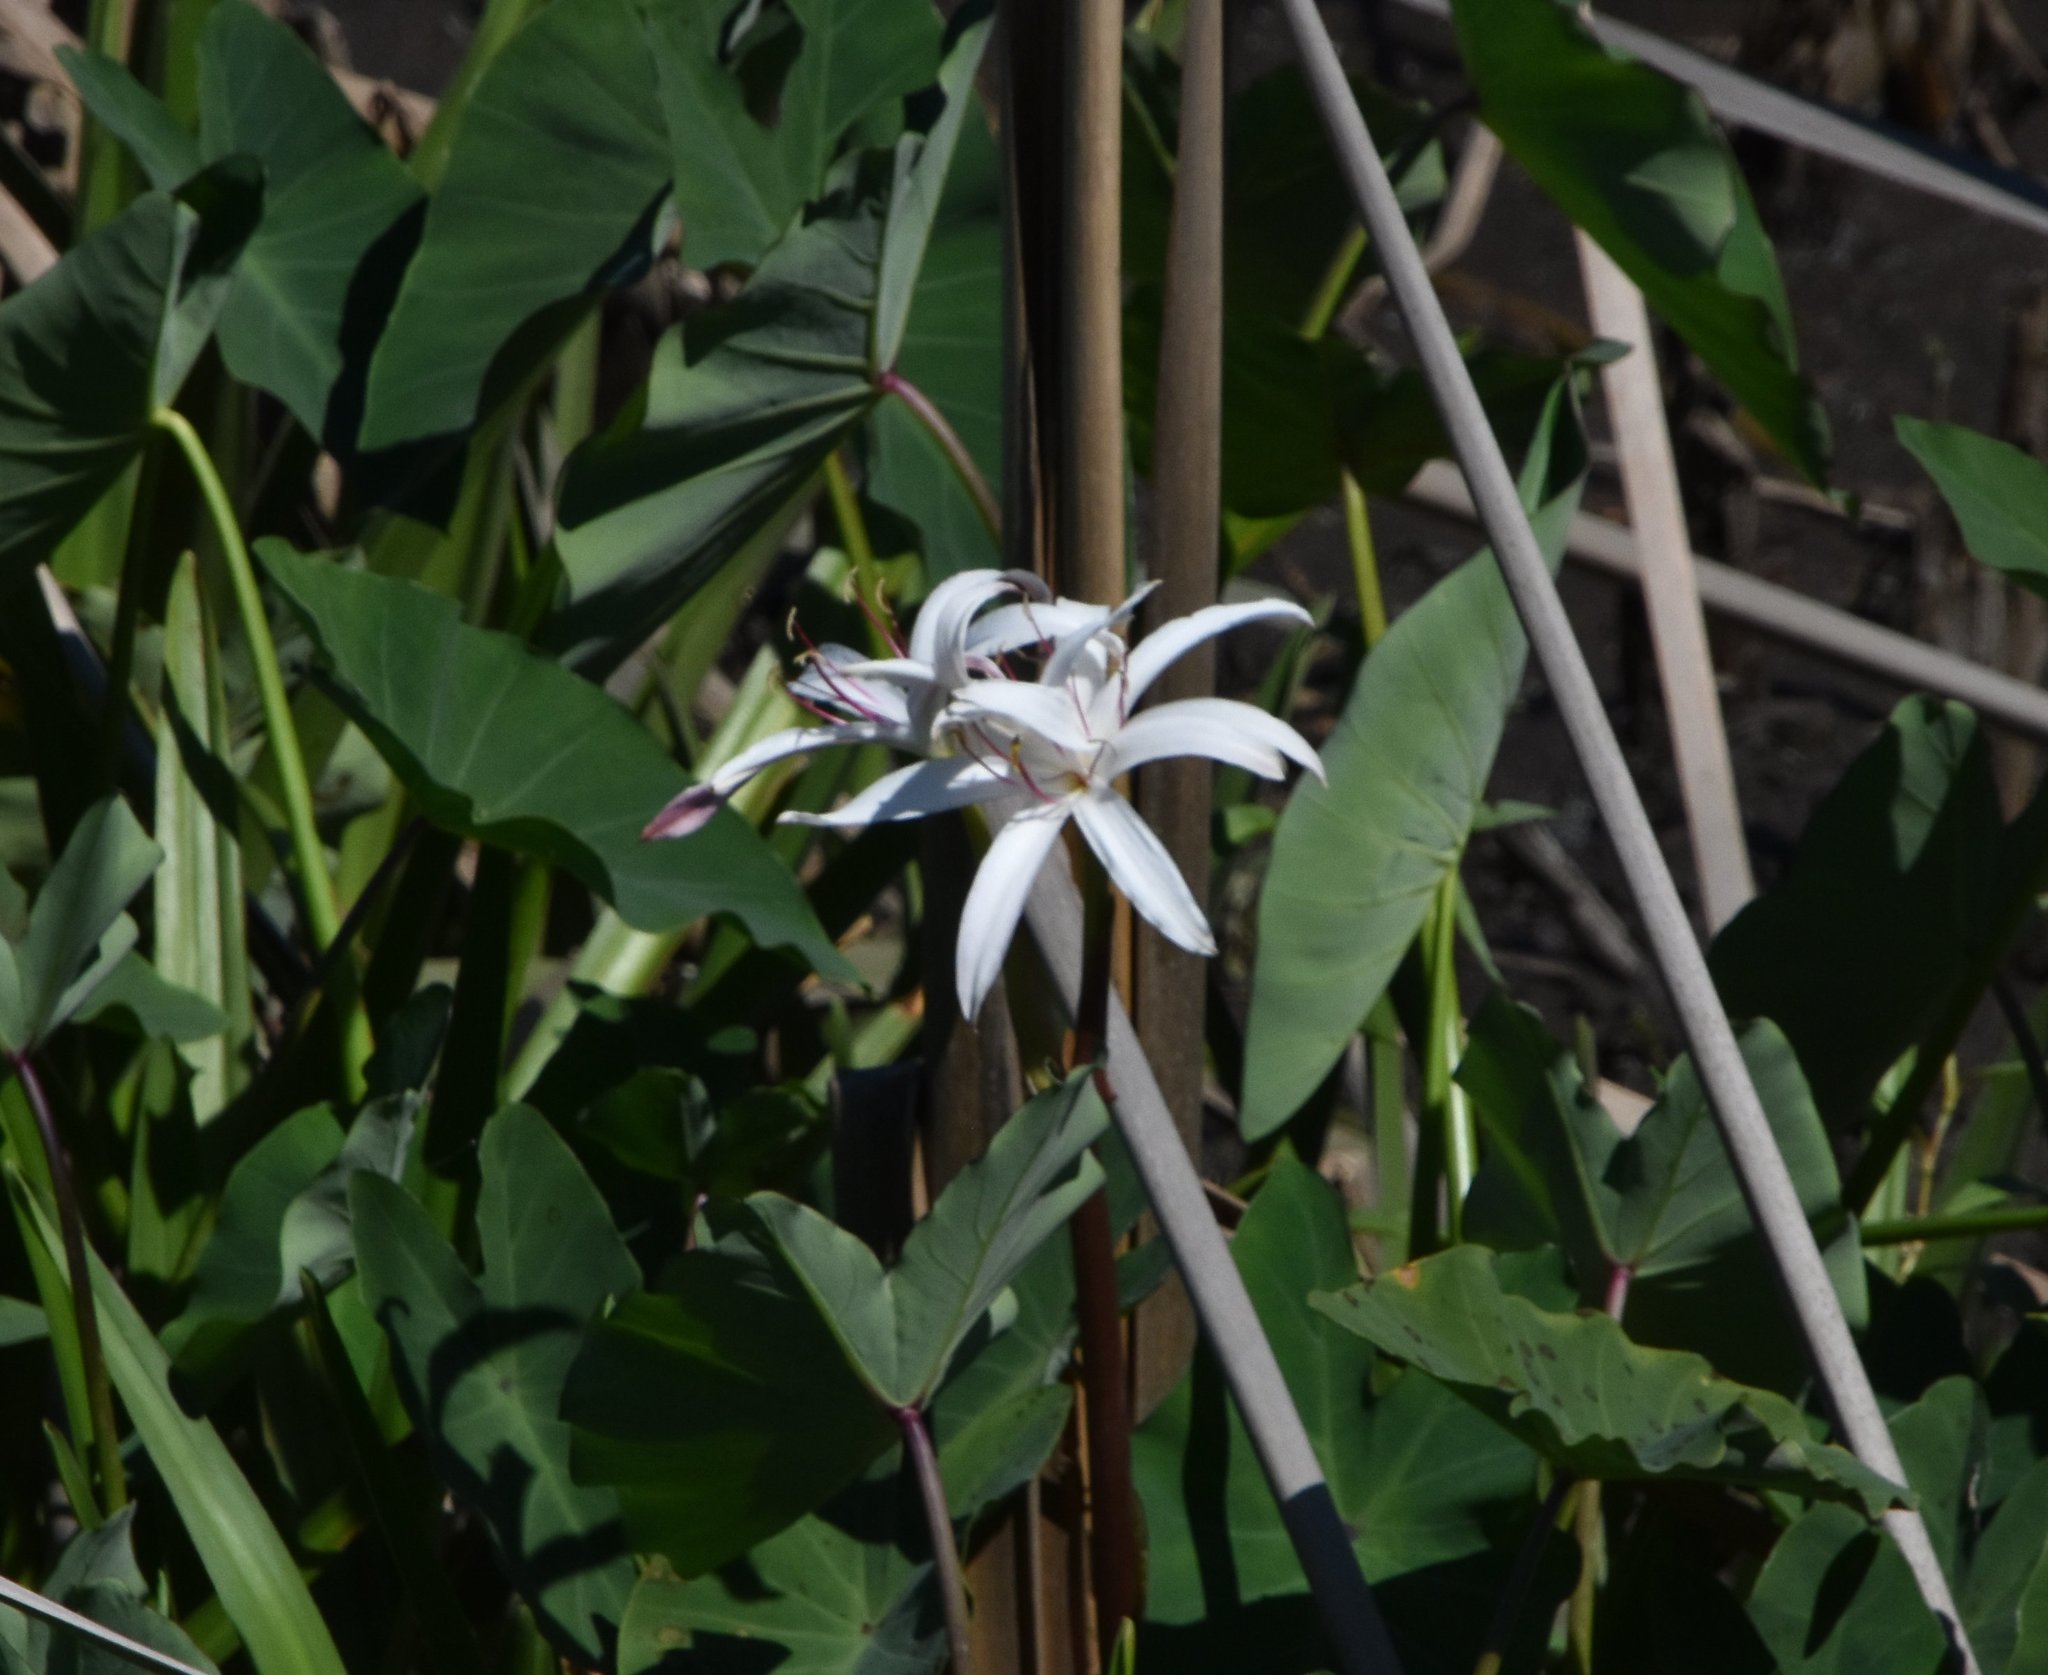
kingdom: Plantae
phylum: Tracheophyta
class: Liliopsida
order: Asparagales
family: Amaryllidaceae
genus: Crinum
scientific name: Crinum americanum
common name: Florida swamp-lily
